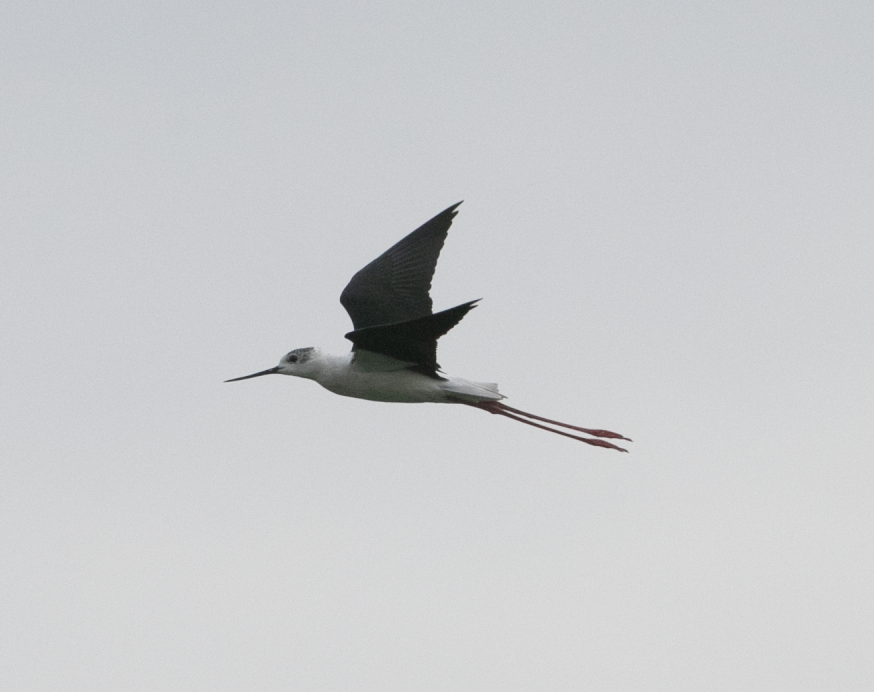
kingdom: Animalia
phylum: Chordata
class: Aves
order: Charadriiformes
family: Recurvirostridae
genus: Himantopus
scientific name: Himantopus himantopus
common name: Black-winged stilt
